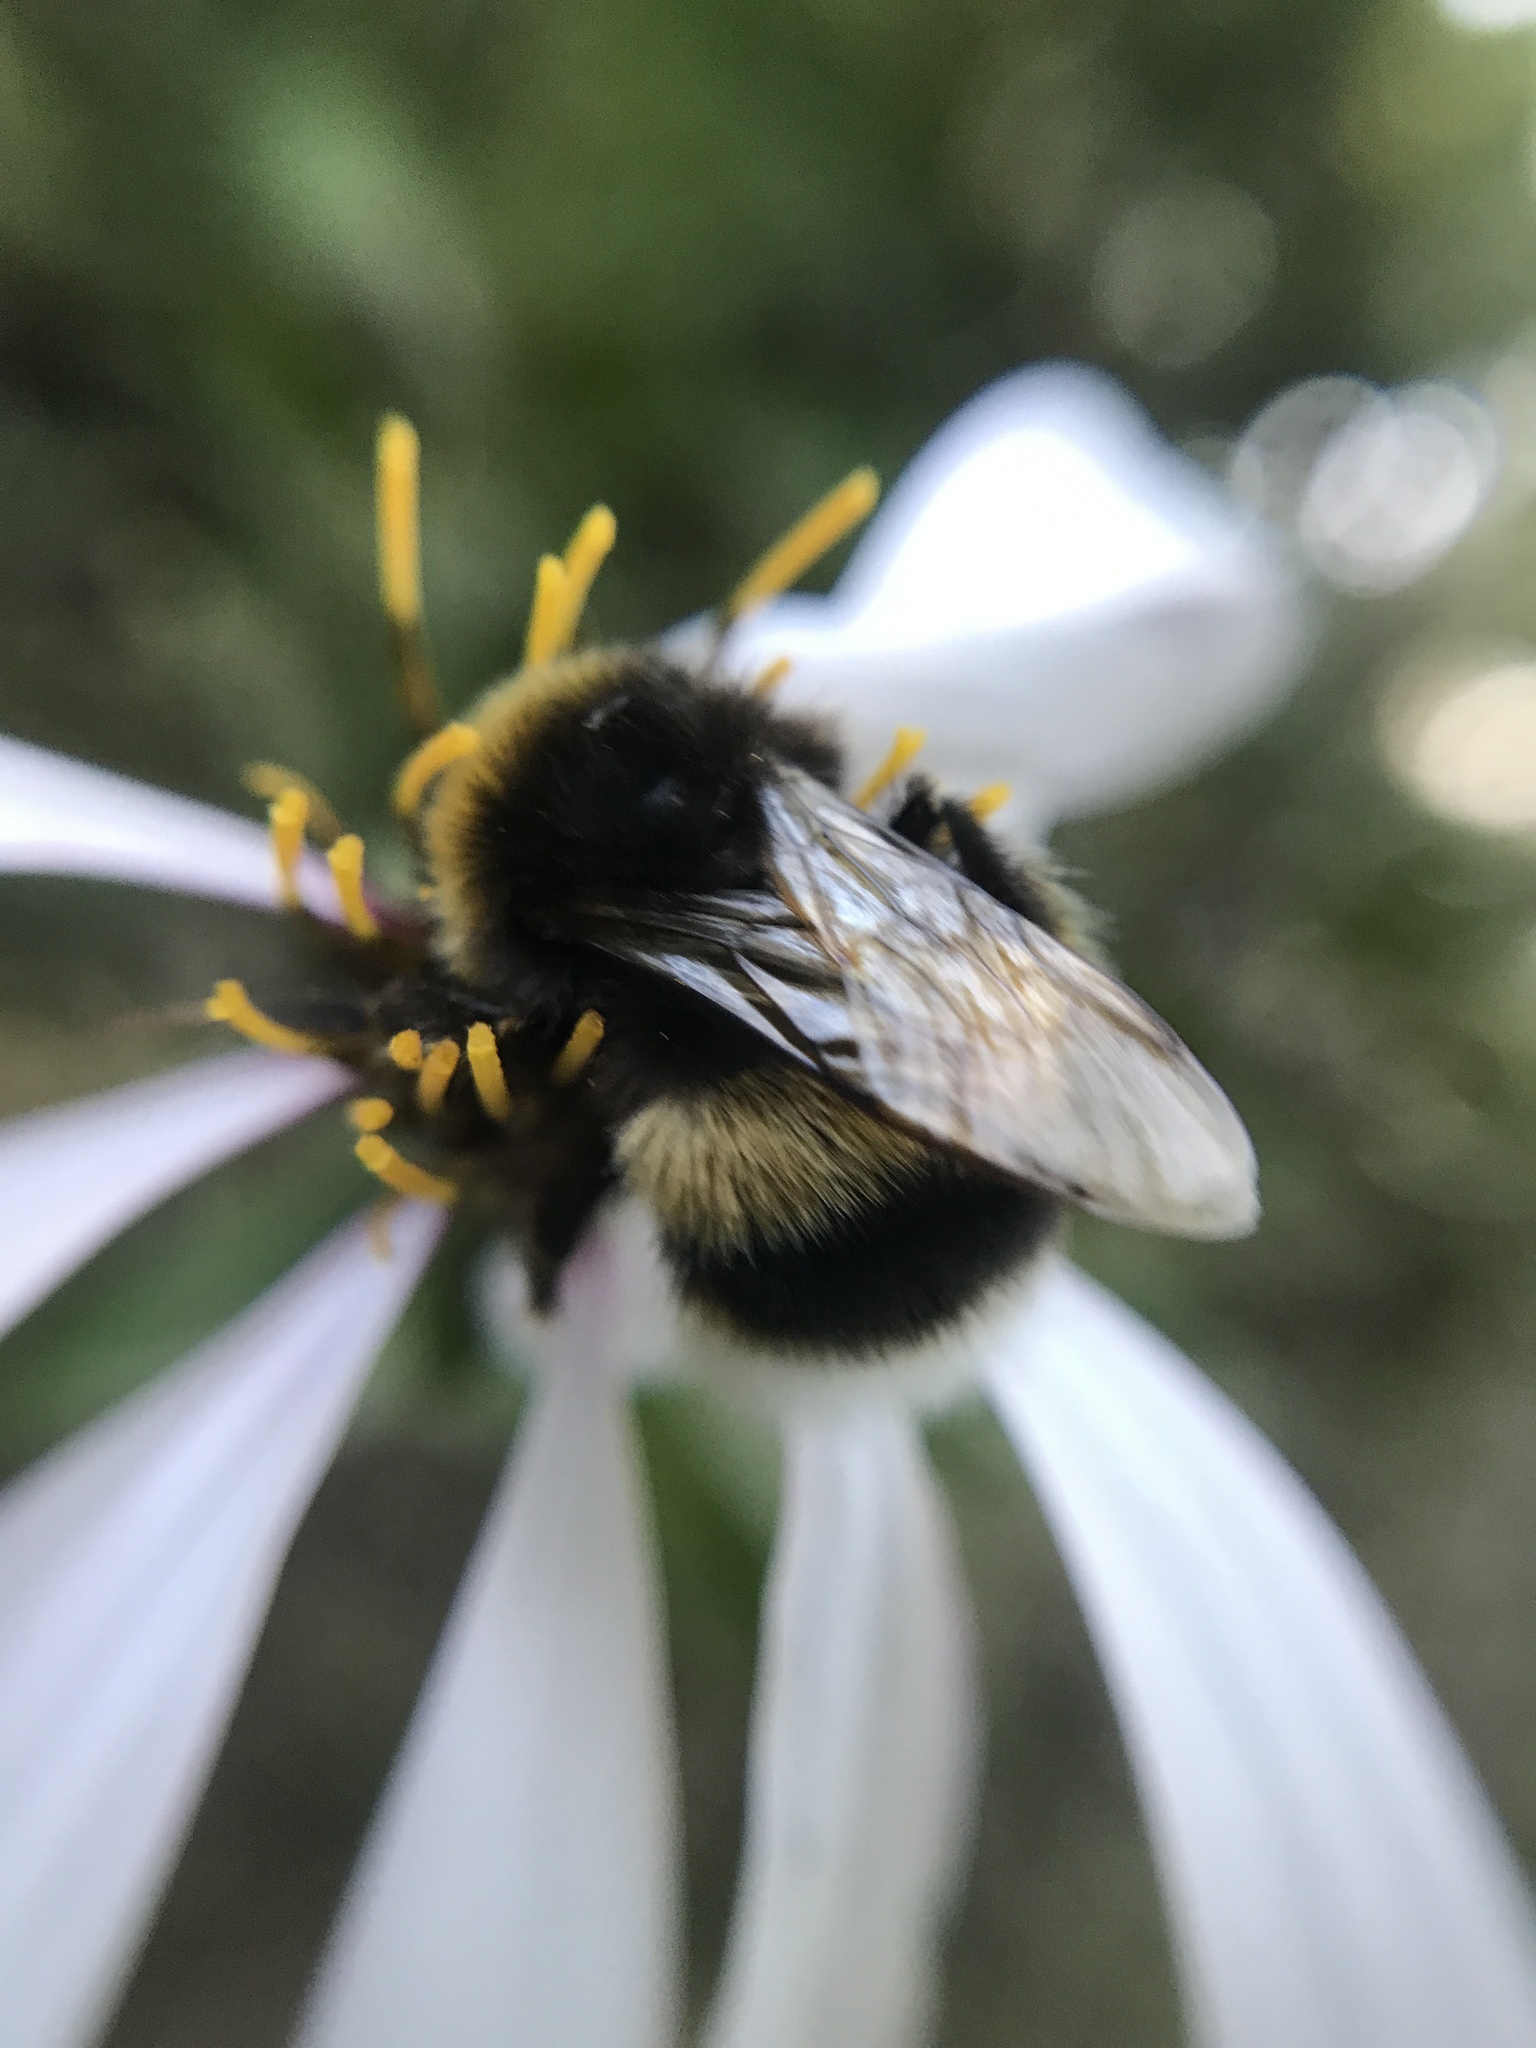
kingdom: Animalia
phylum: Arthropoda
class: Insecta
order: Hymenoptera
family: Apidae
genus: Bombus
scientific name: Bombus terrestris
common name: Buff-tailed bumblebee
